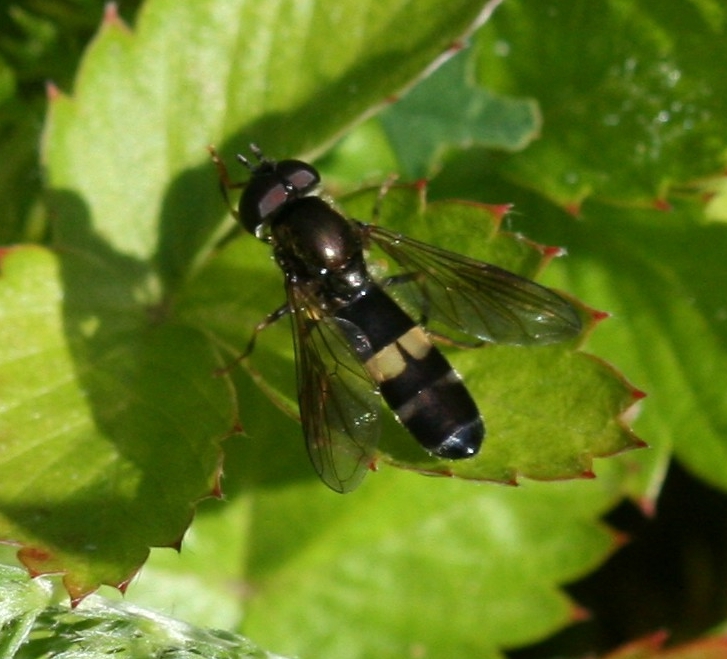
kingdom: Animalia
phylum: Arthropoda
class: Insecta
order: Diptera
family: Syrphidae
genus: Pyrophaena
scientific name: Pyrophaena rosarum
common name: Fourspot sedgesitter
